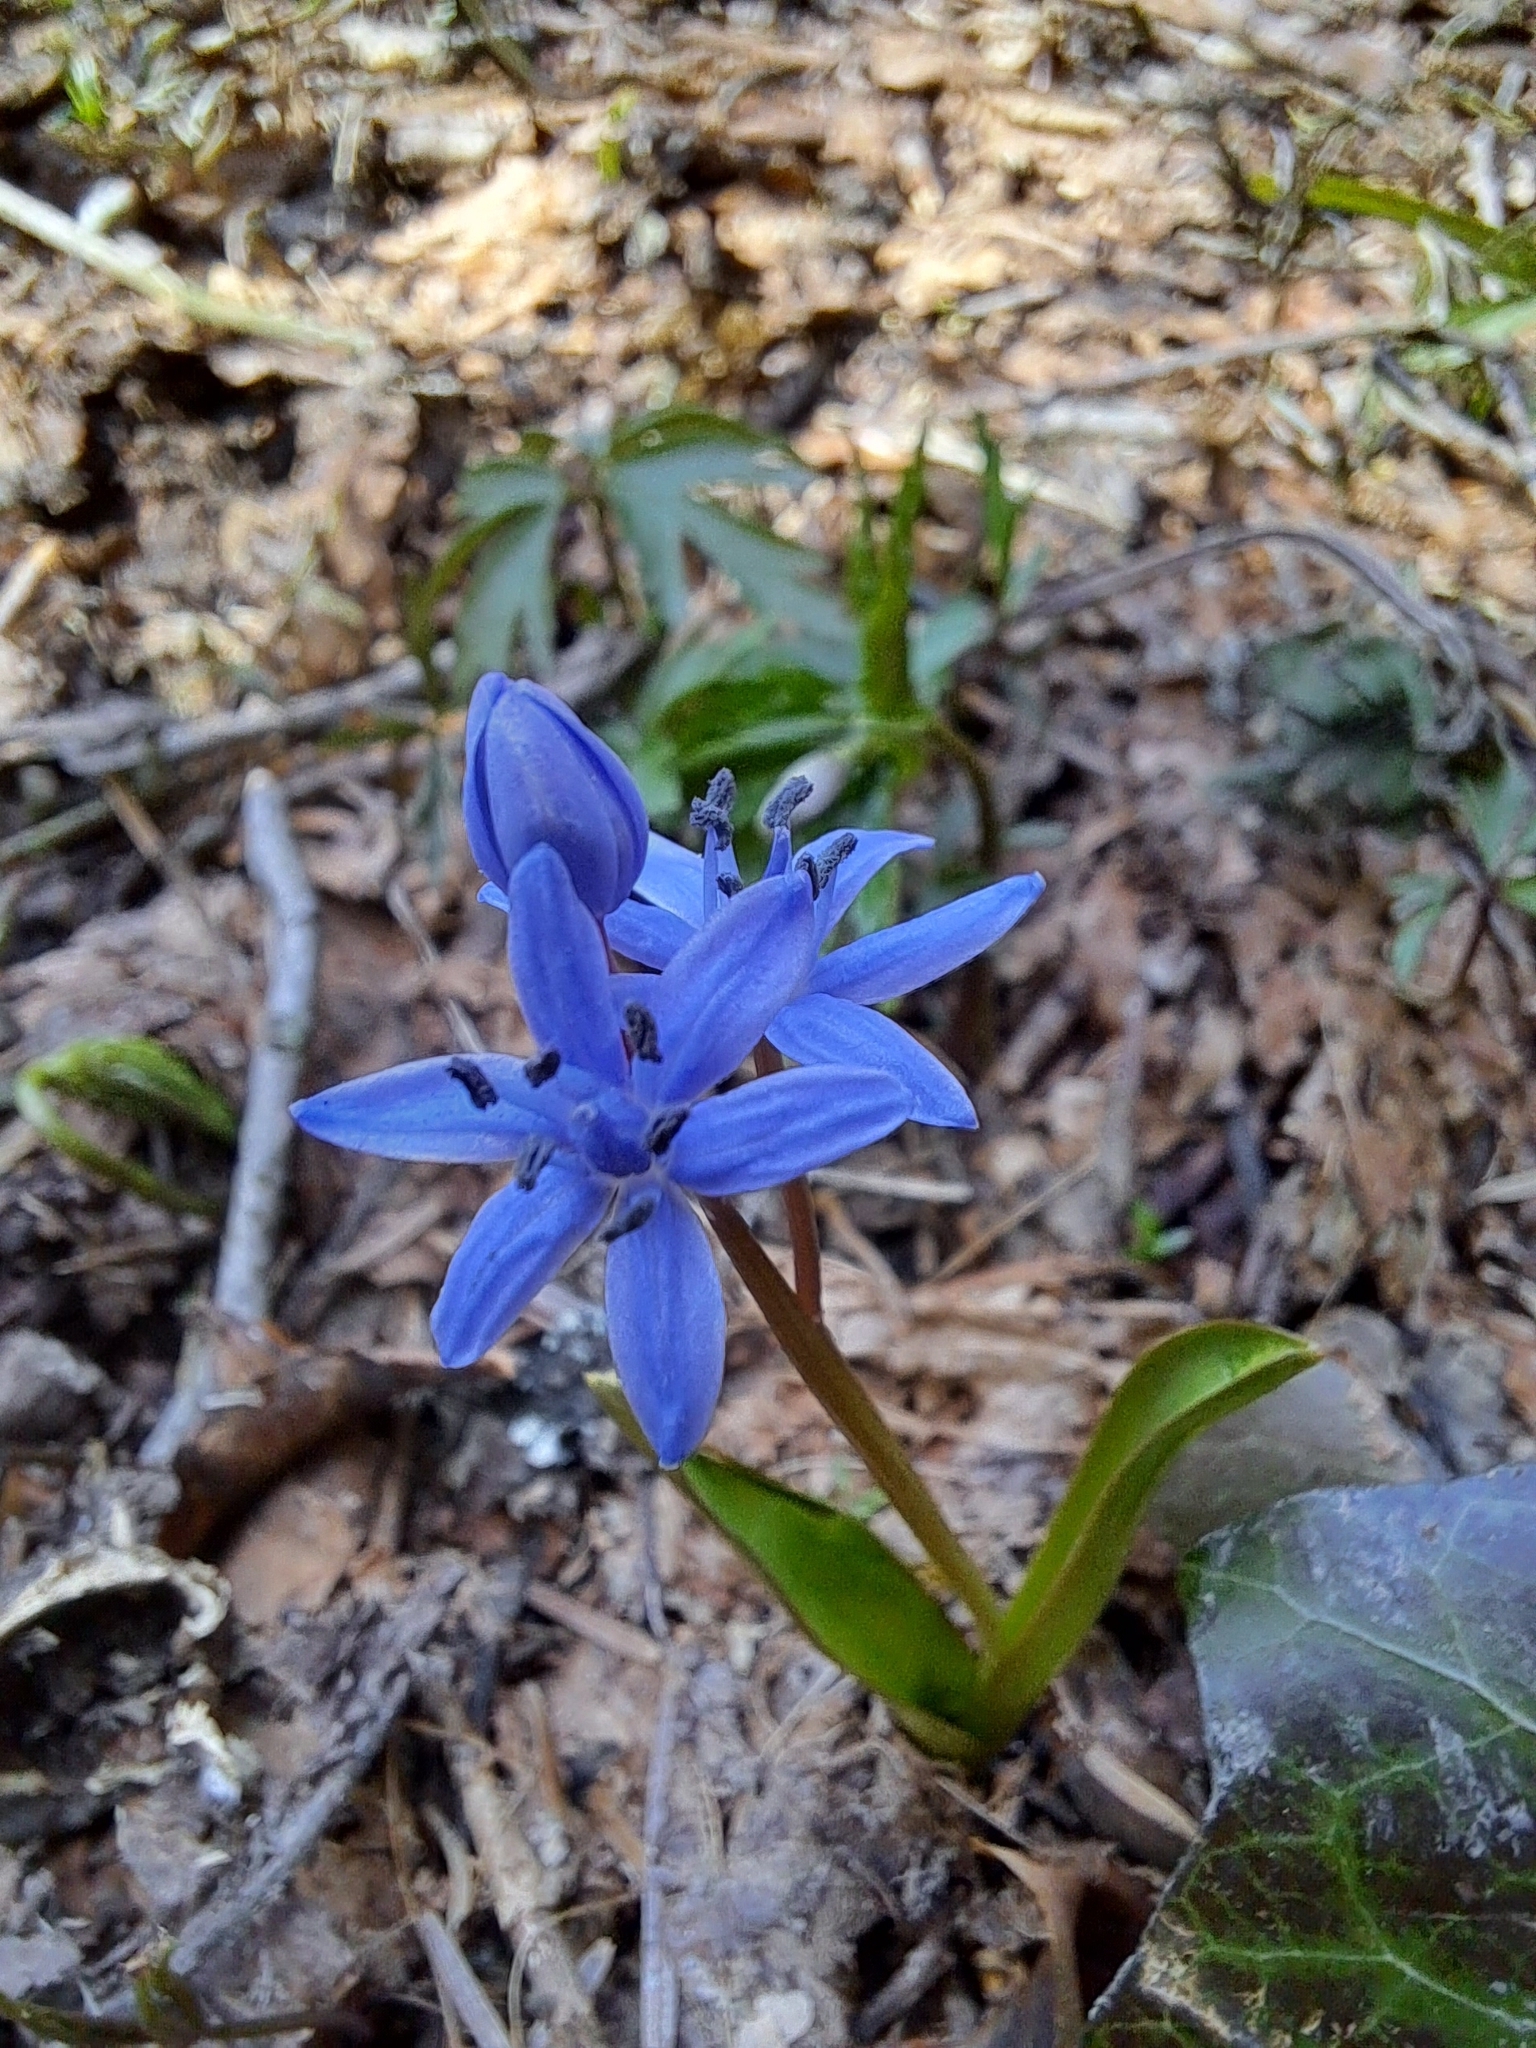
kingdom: Plantae
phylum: Tracheophyta
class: Liliopsida
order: Asparagales
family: Asparagaceae
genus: Scilla
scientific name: Scilla bifolia
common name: Alpine squill
